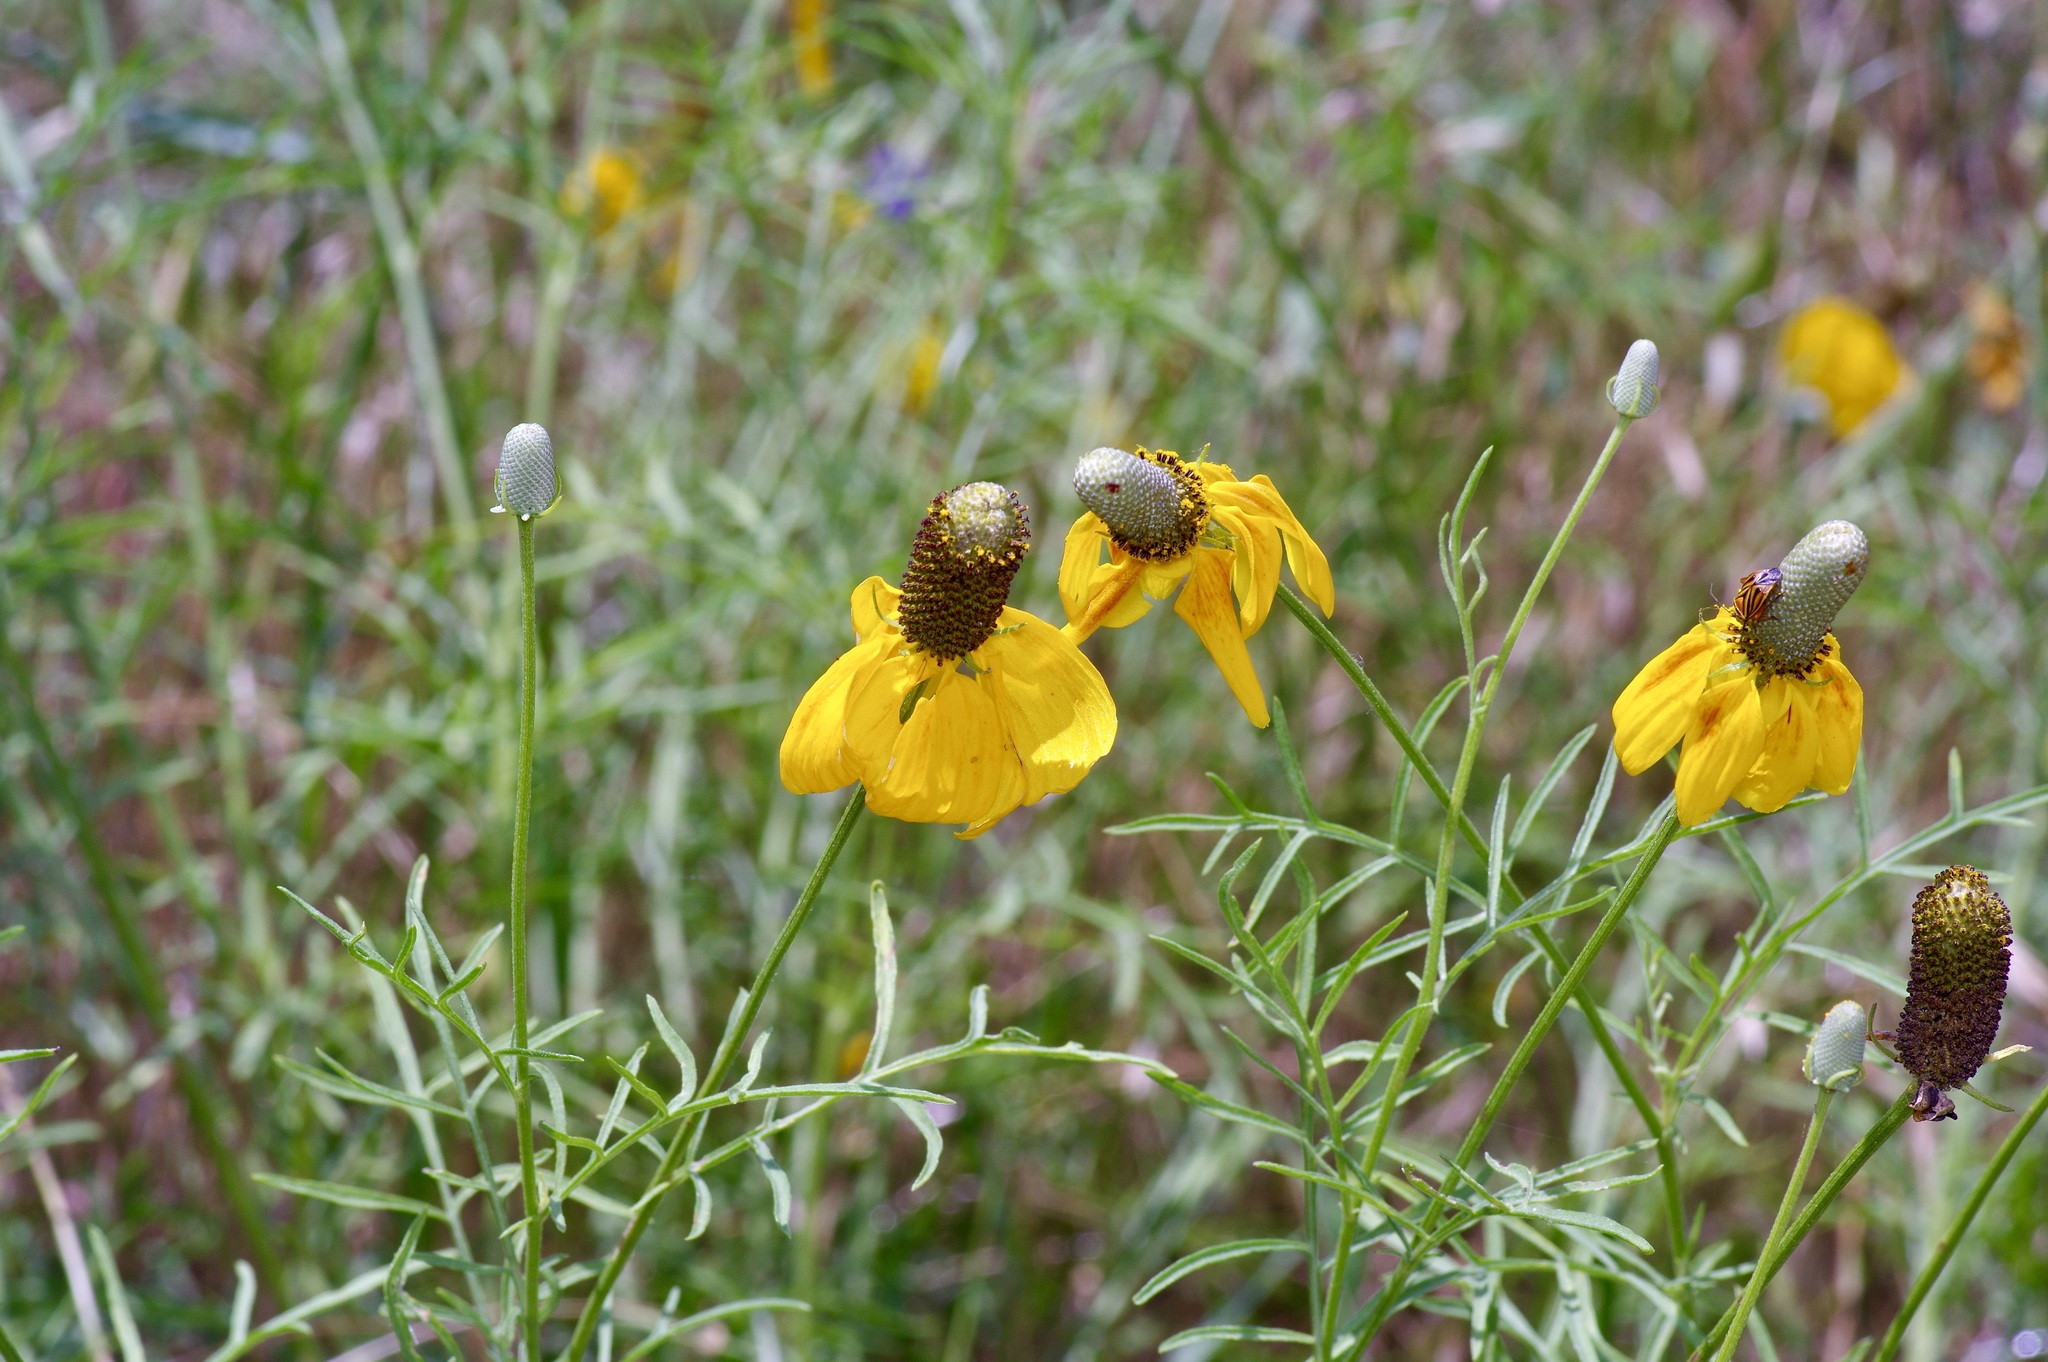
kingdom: Plantae
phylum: Tracheophyta
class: Magnoliopsida
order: Asterales
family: Asteraceae
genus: Ratibida
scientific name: Ratibida columnifera
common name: Prairie coneflower
